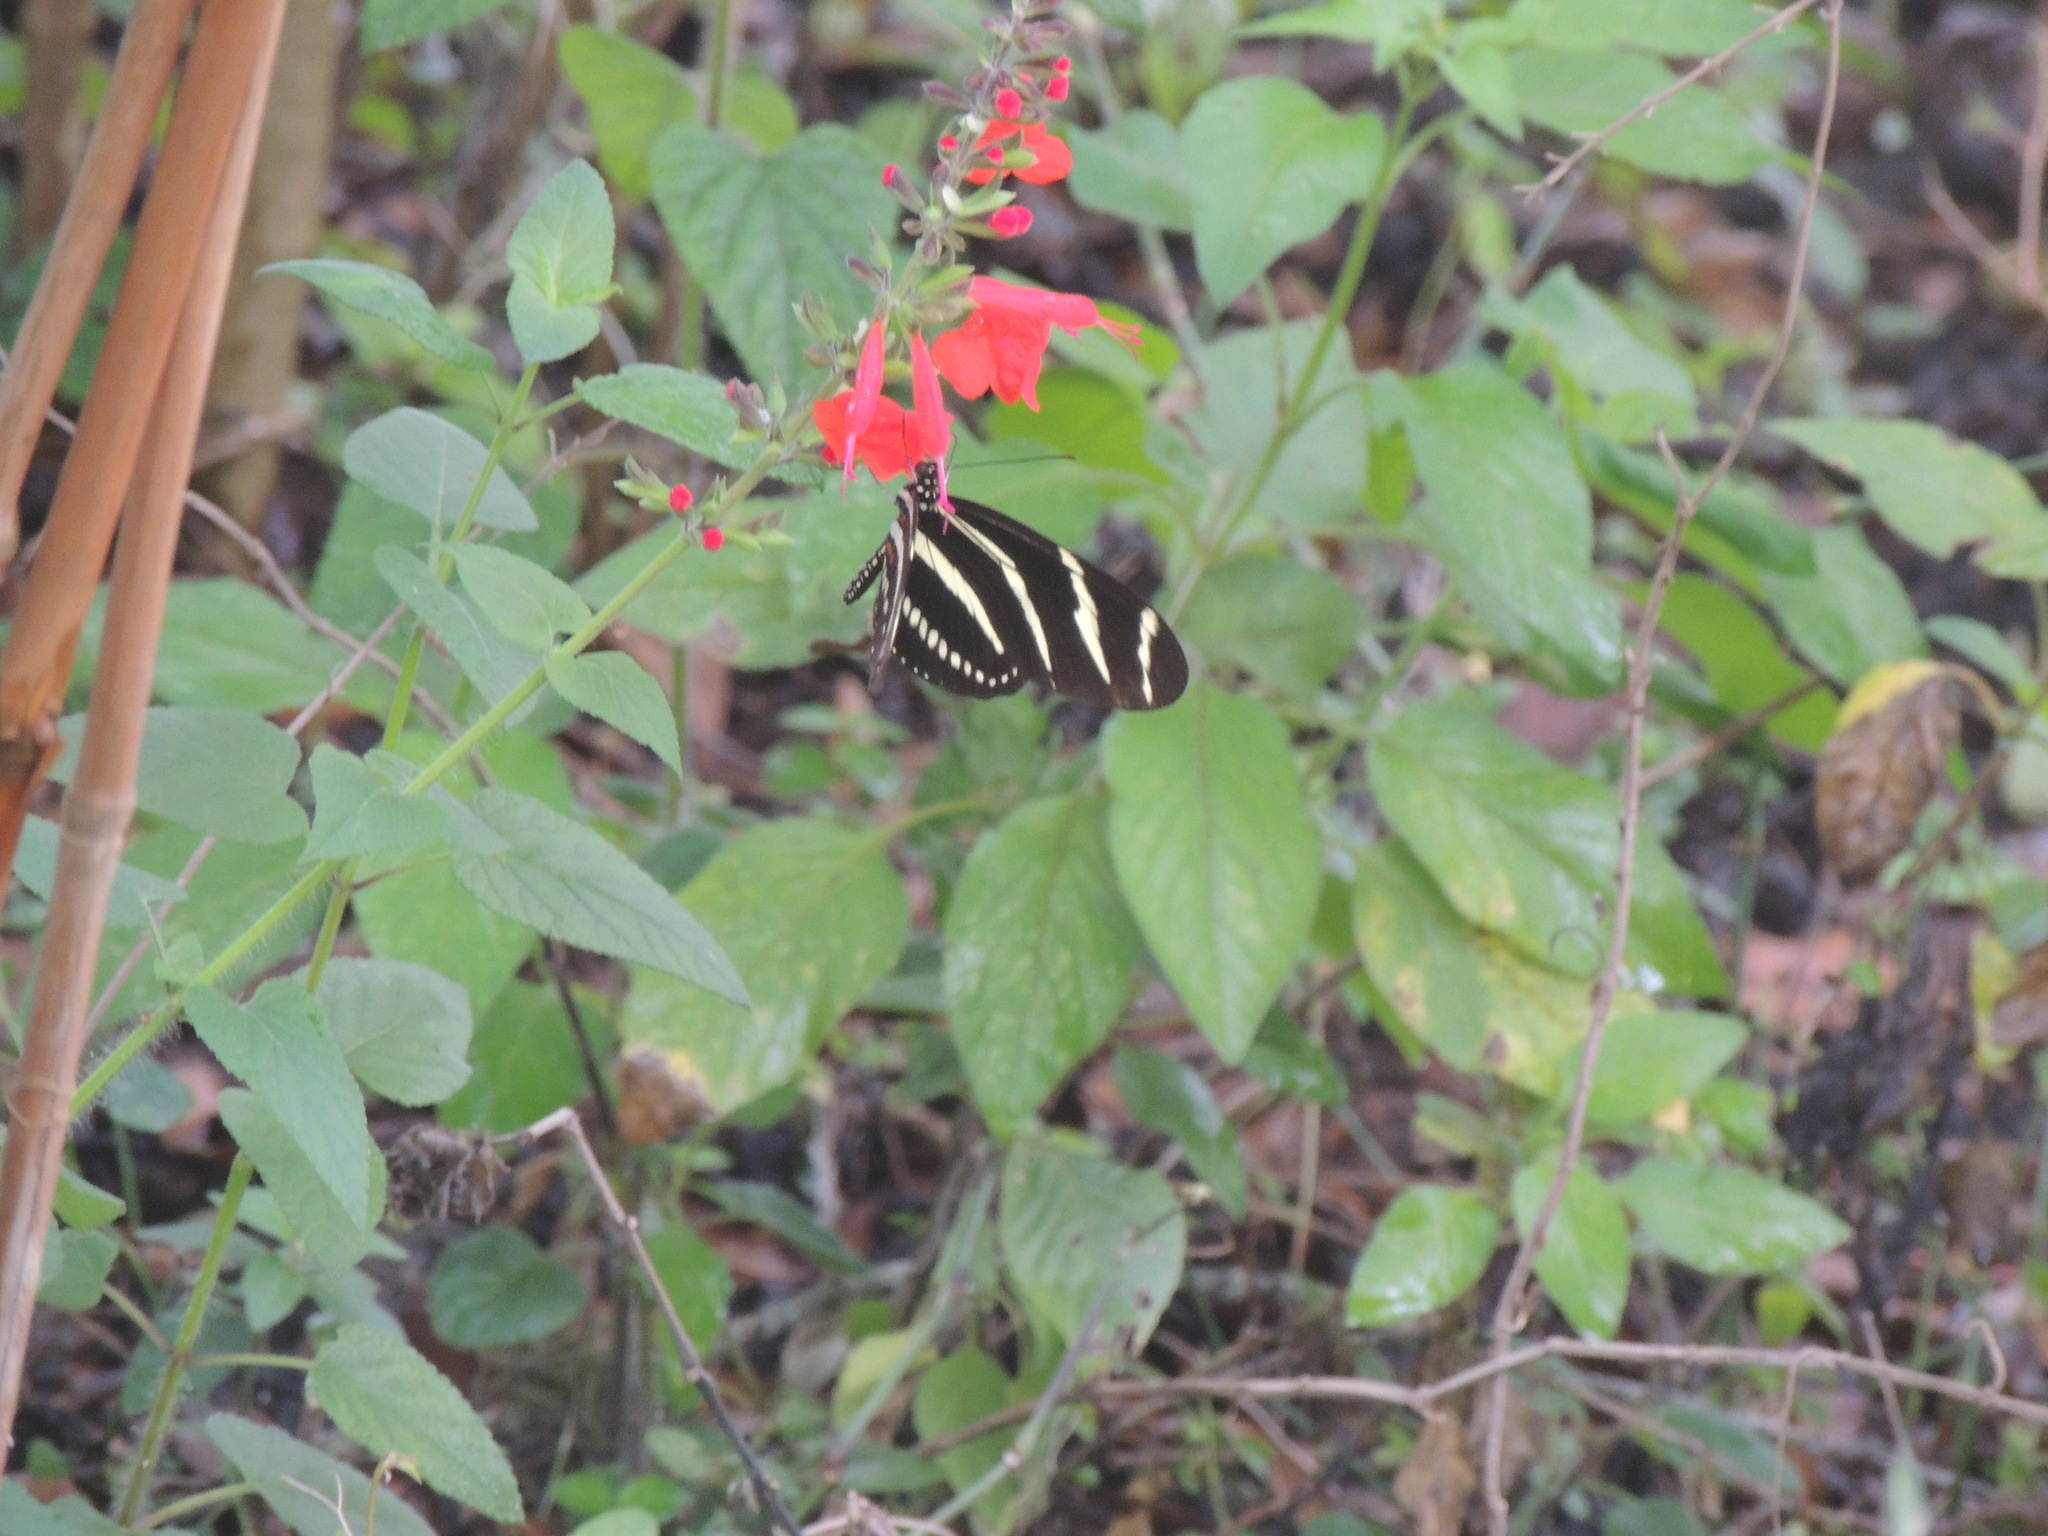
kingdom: Animalia
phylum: Arthropoda
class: Insecta
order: Lepidoptera
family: Nymphalidae
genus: Heliconius
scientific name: Heliconius charithonia
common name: Zebra long wing
